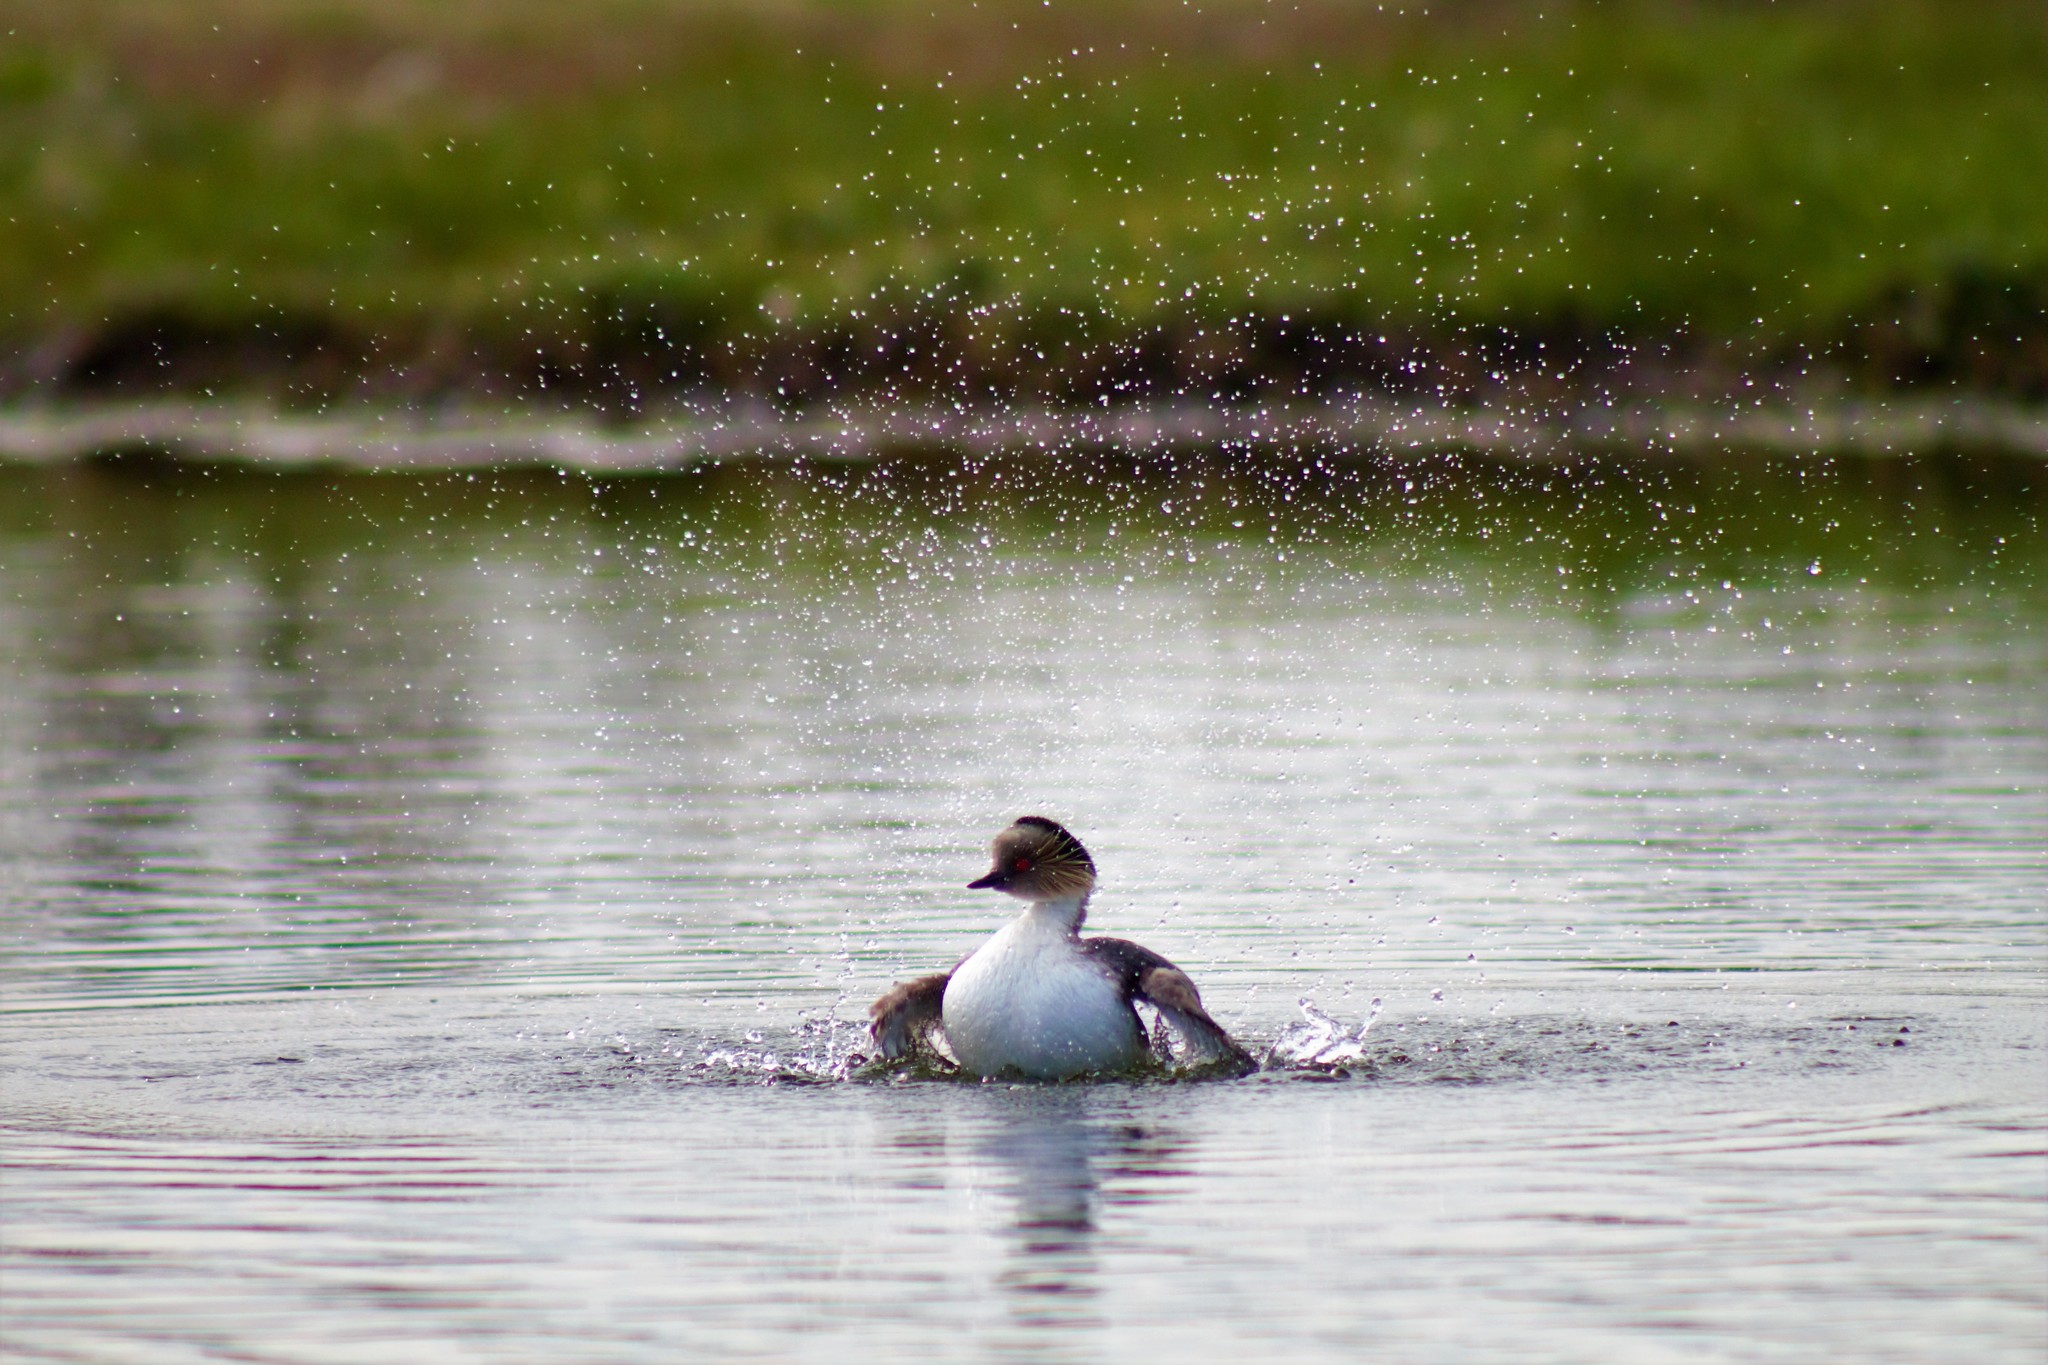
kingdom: Animalia
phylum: Chordata
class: Aves
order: Podicipediformes
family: Podicipedidae
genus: Podiceps
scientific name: Podiceps occipitalis
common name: Silvery grebe
